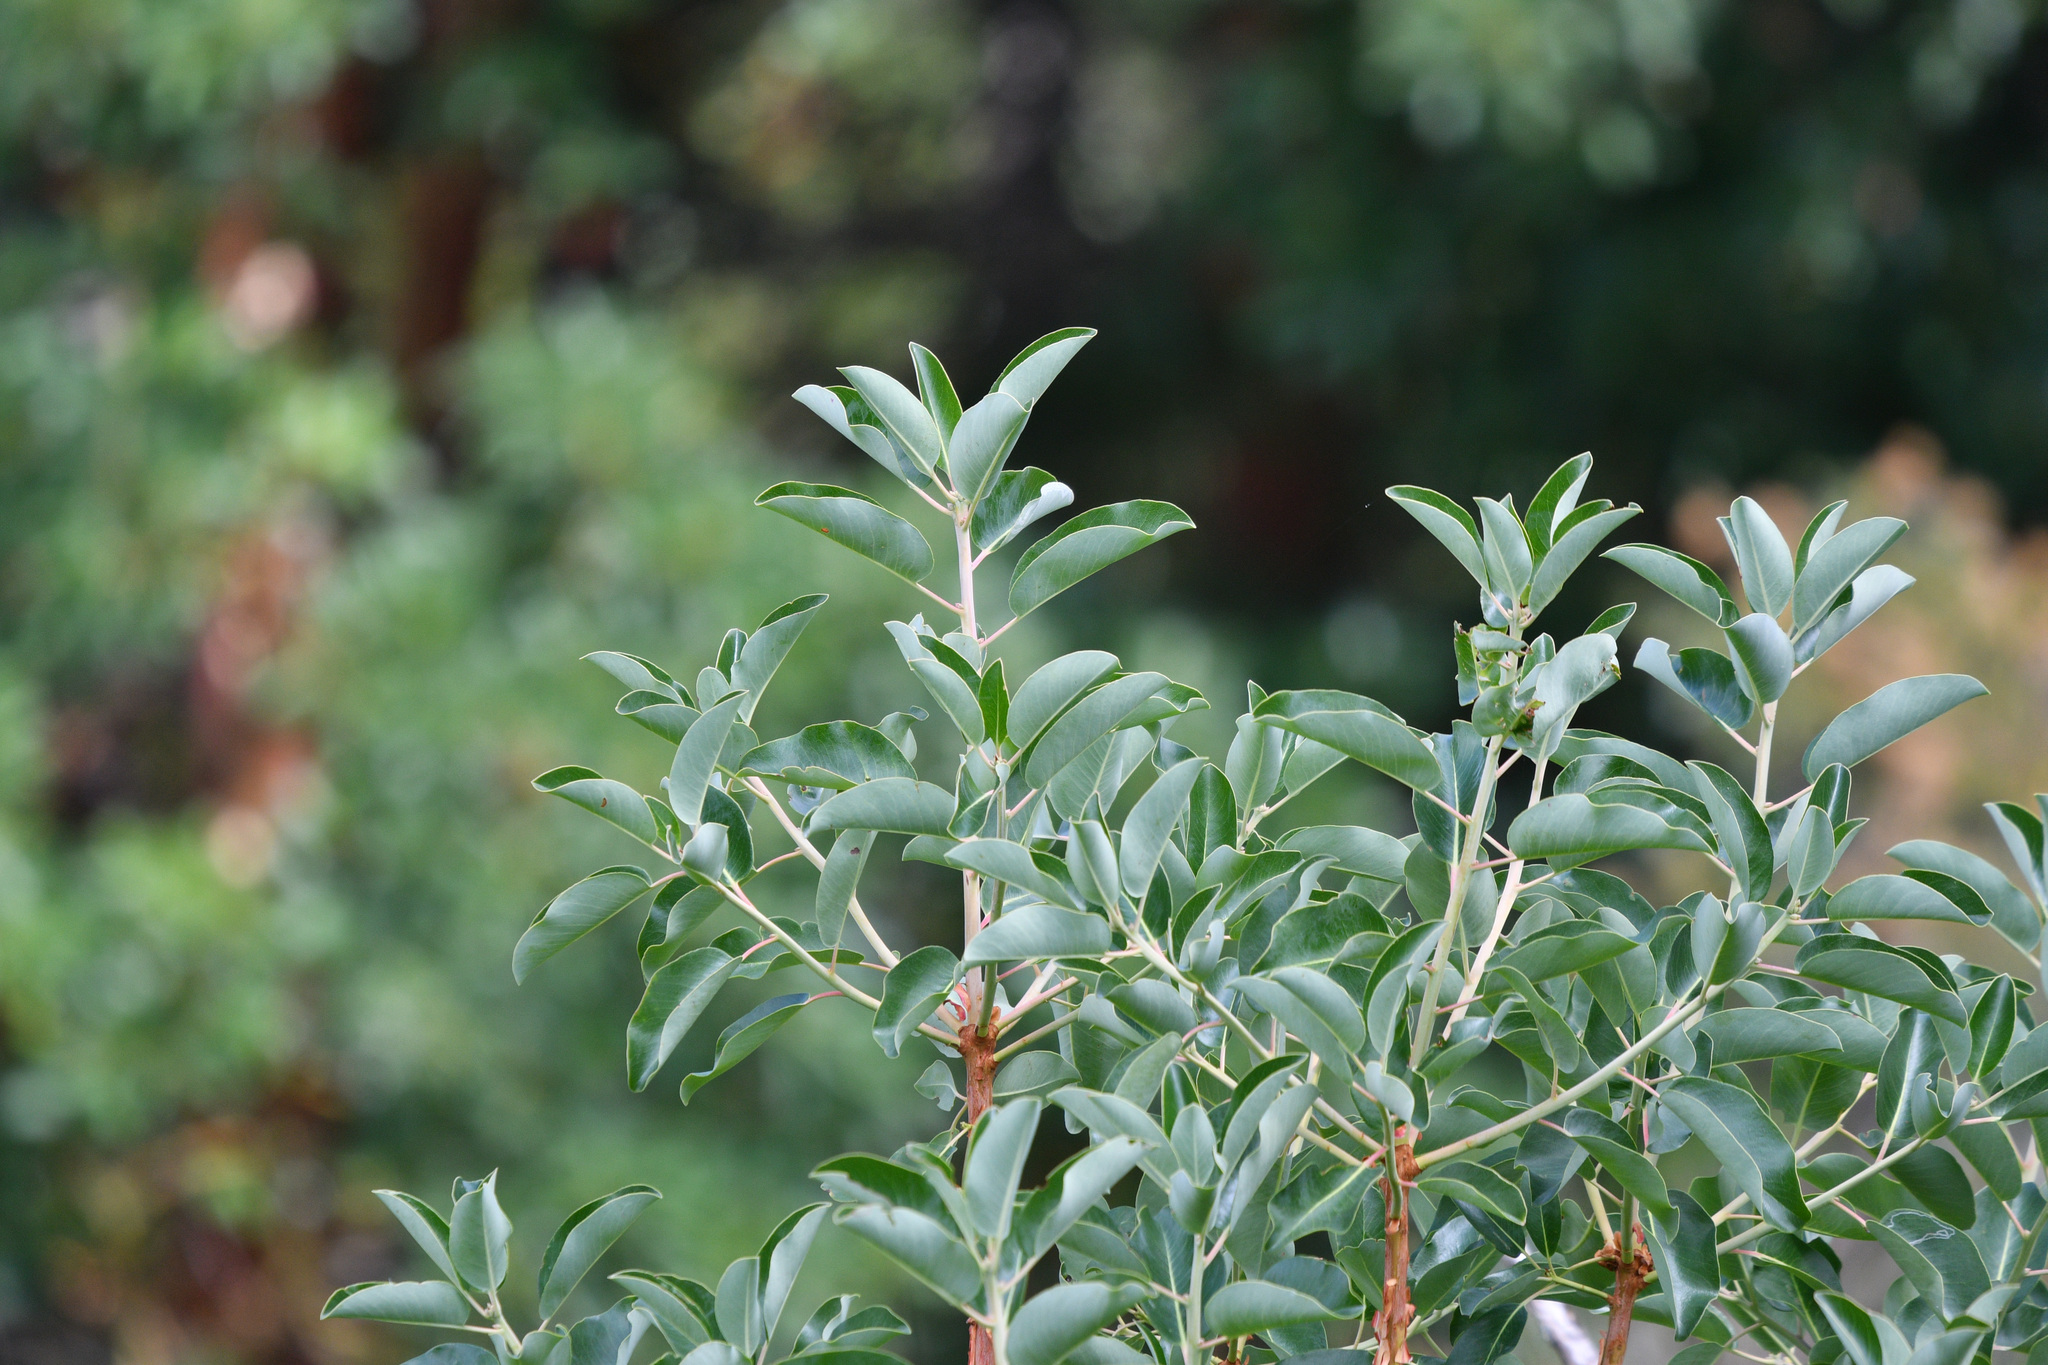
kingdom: Plantae
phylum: Tracheophyta
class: Magnoliopsida
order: Ericales
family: Ericaceae
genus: Arbutus
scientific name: Arbutus menziesii
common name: Pacific madrone
